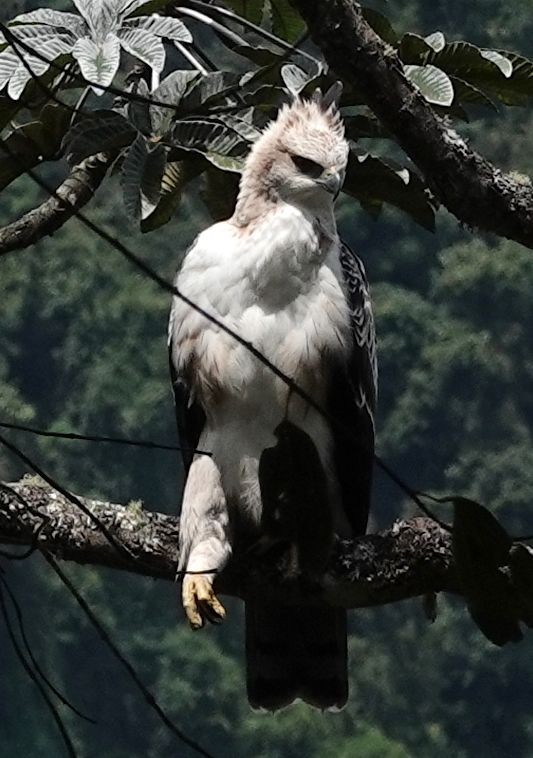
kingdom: Animalia
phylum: Chordata
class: Aves
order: Accipitriformes
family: Accipitridae
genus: Spizaetus
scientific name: Spizaetus isidori
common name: Black-and-chestnut eagle
